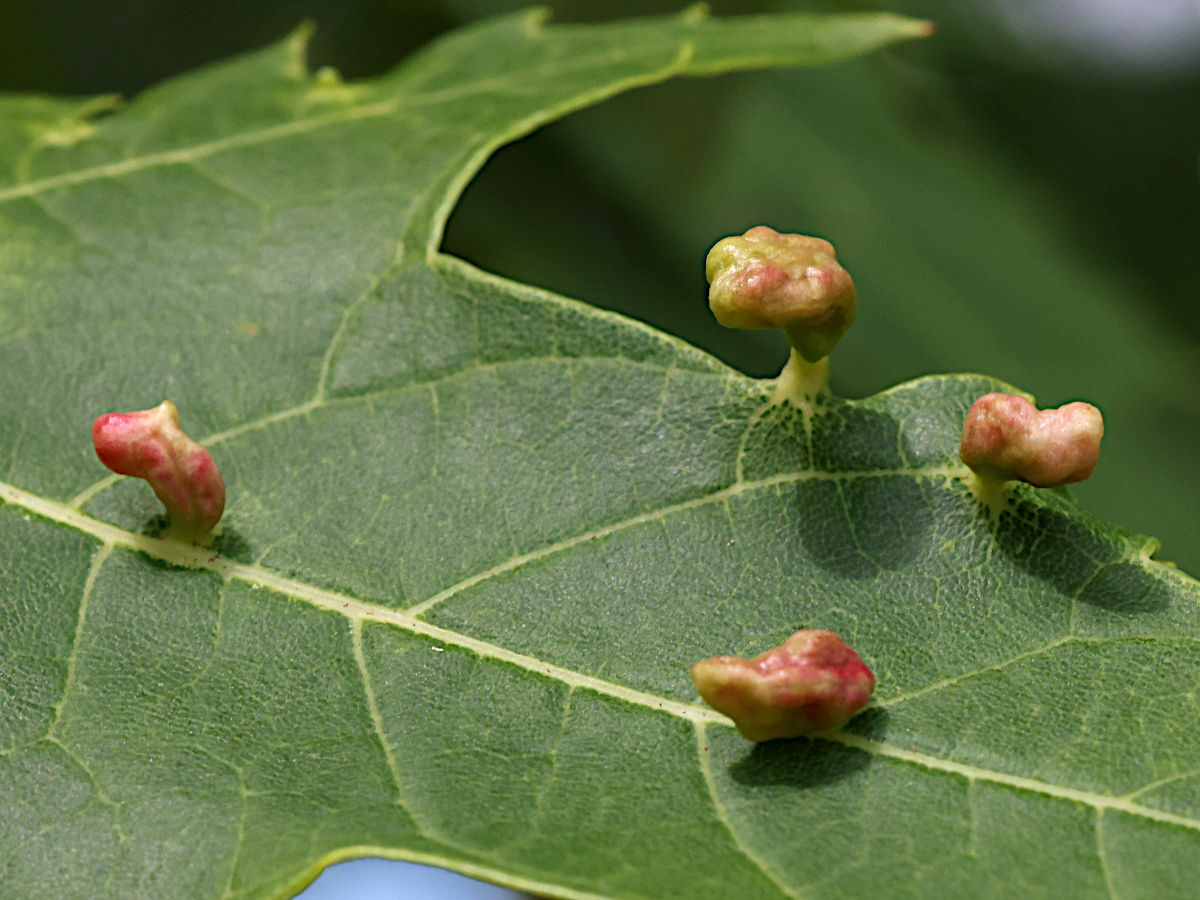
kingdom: Animalia
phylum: Arthropoda
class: Arachnida
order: Trombidiformes
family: Eriophyidae
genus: Vasates
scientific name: Vasates quadripedes
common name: Maple bladder gall mite
